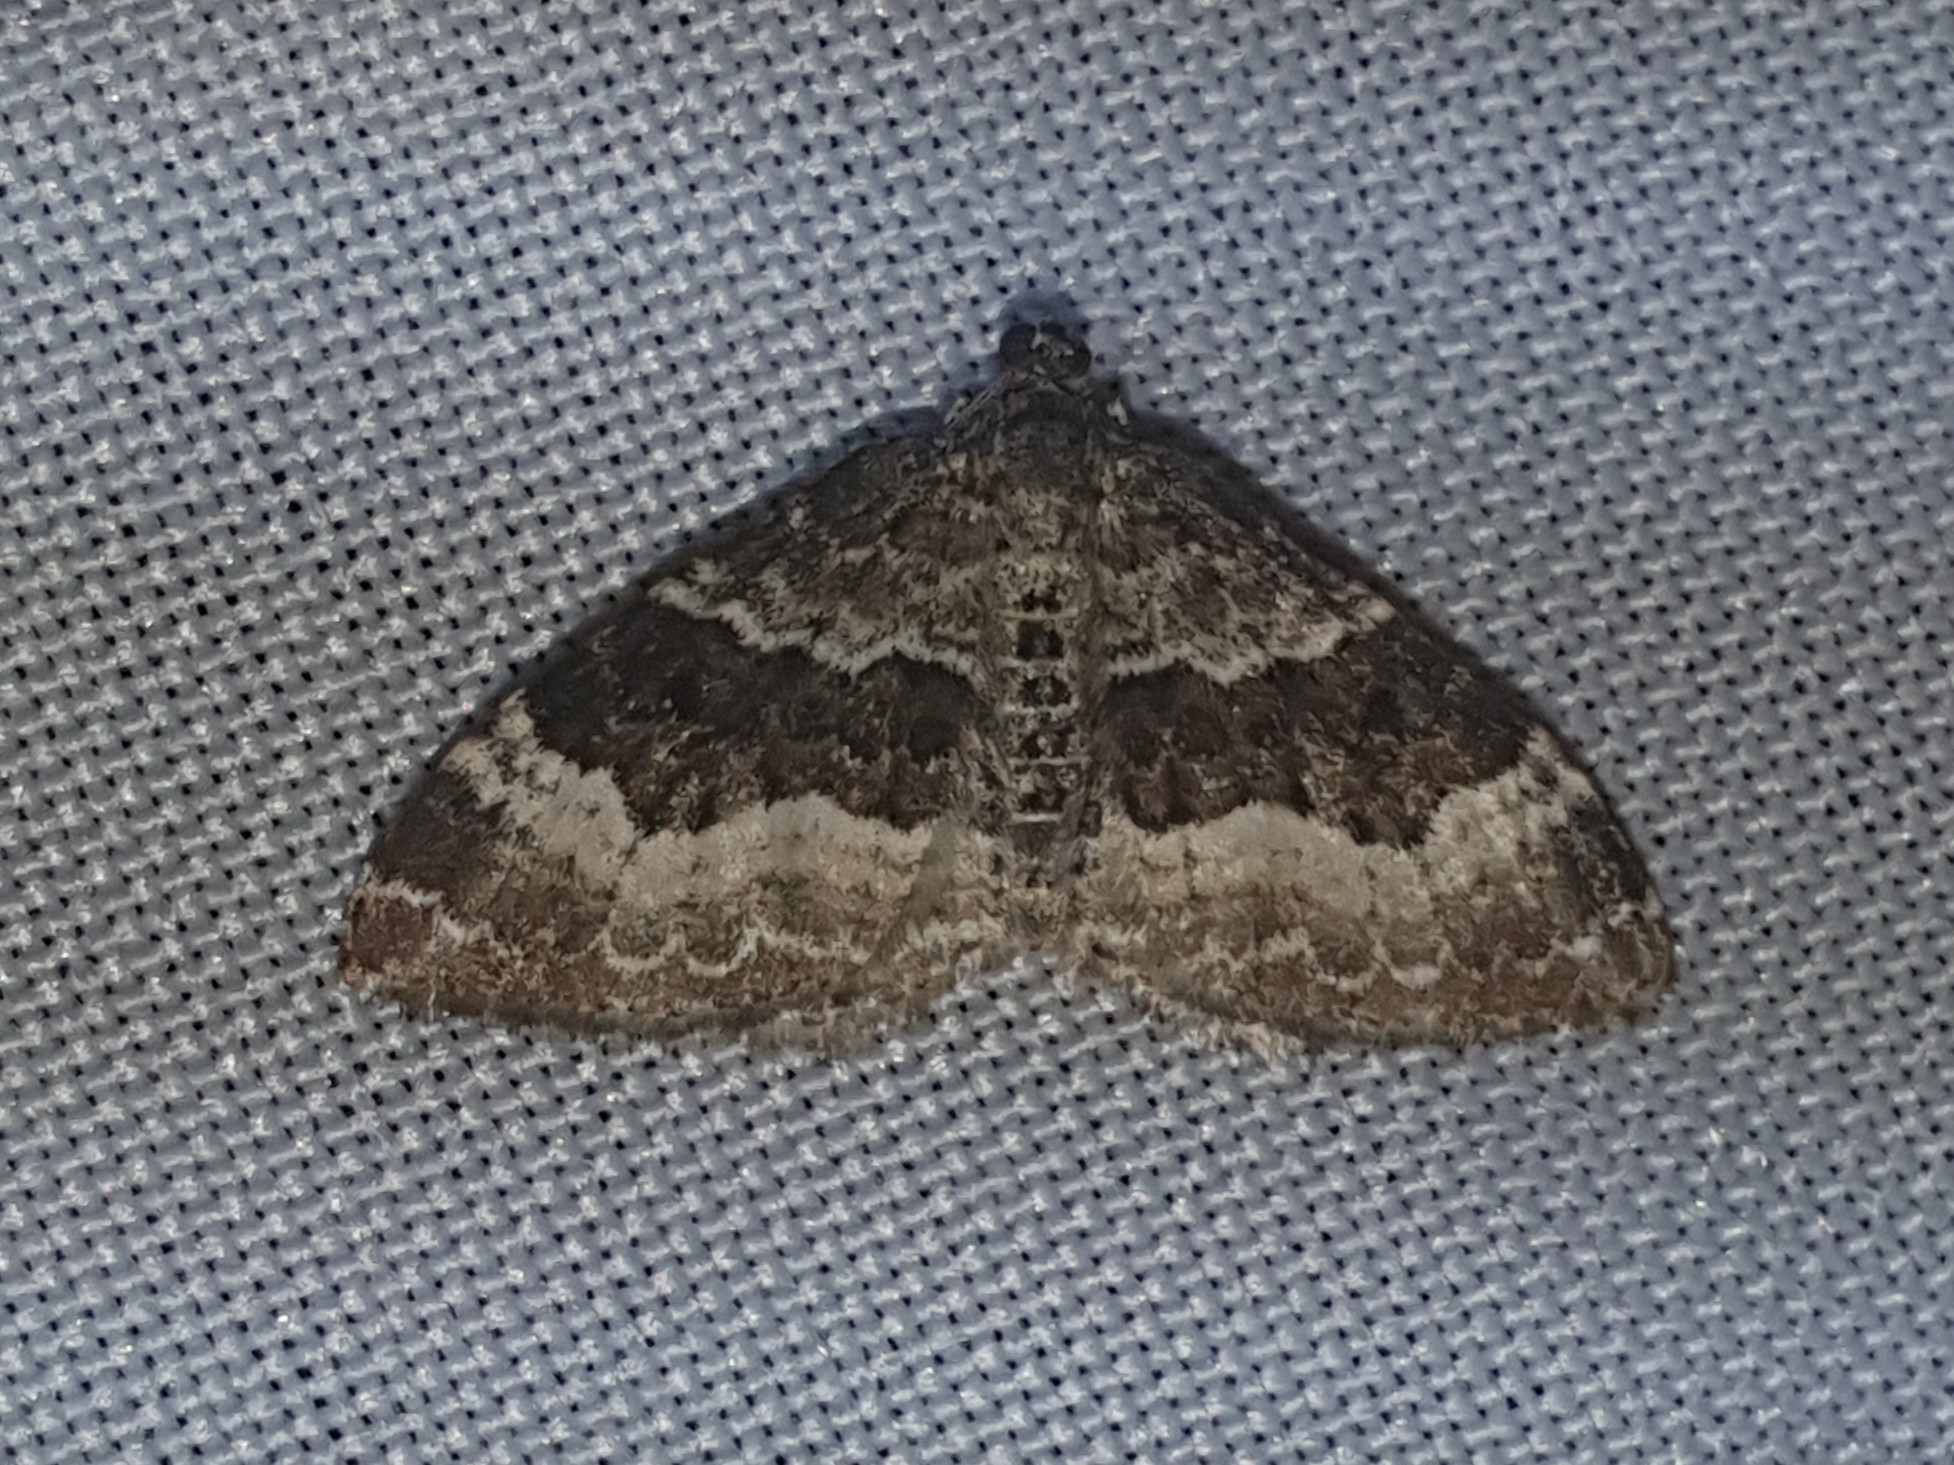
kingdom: Animalia
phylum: Arthropoda
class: Insecta
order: Lepidoptera
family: Geometridae
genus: Epirrhoe
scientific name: Epirrhoe alternata
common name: Common carpet
